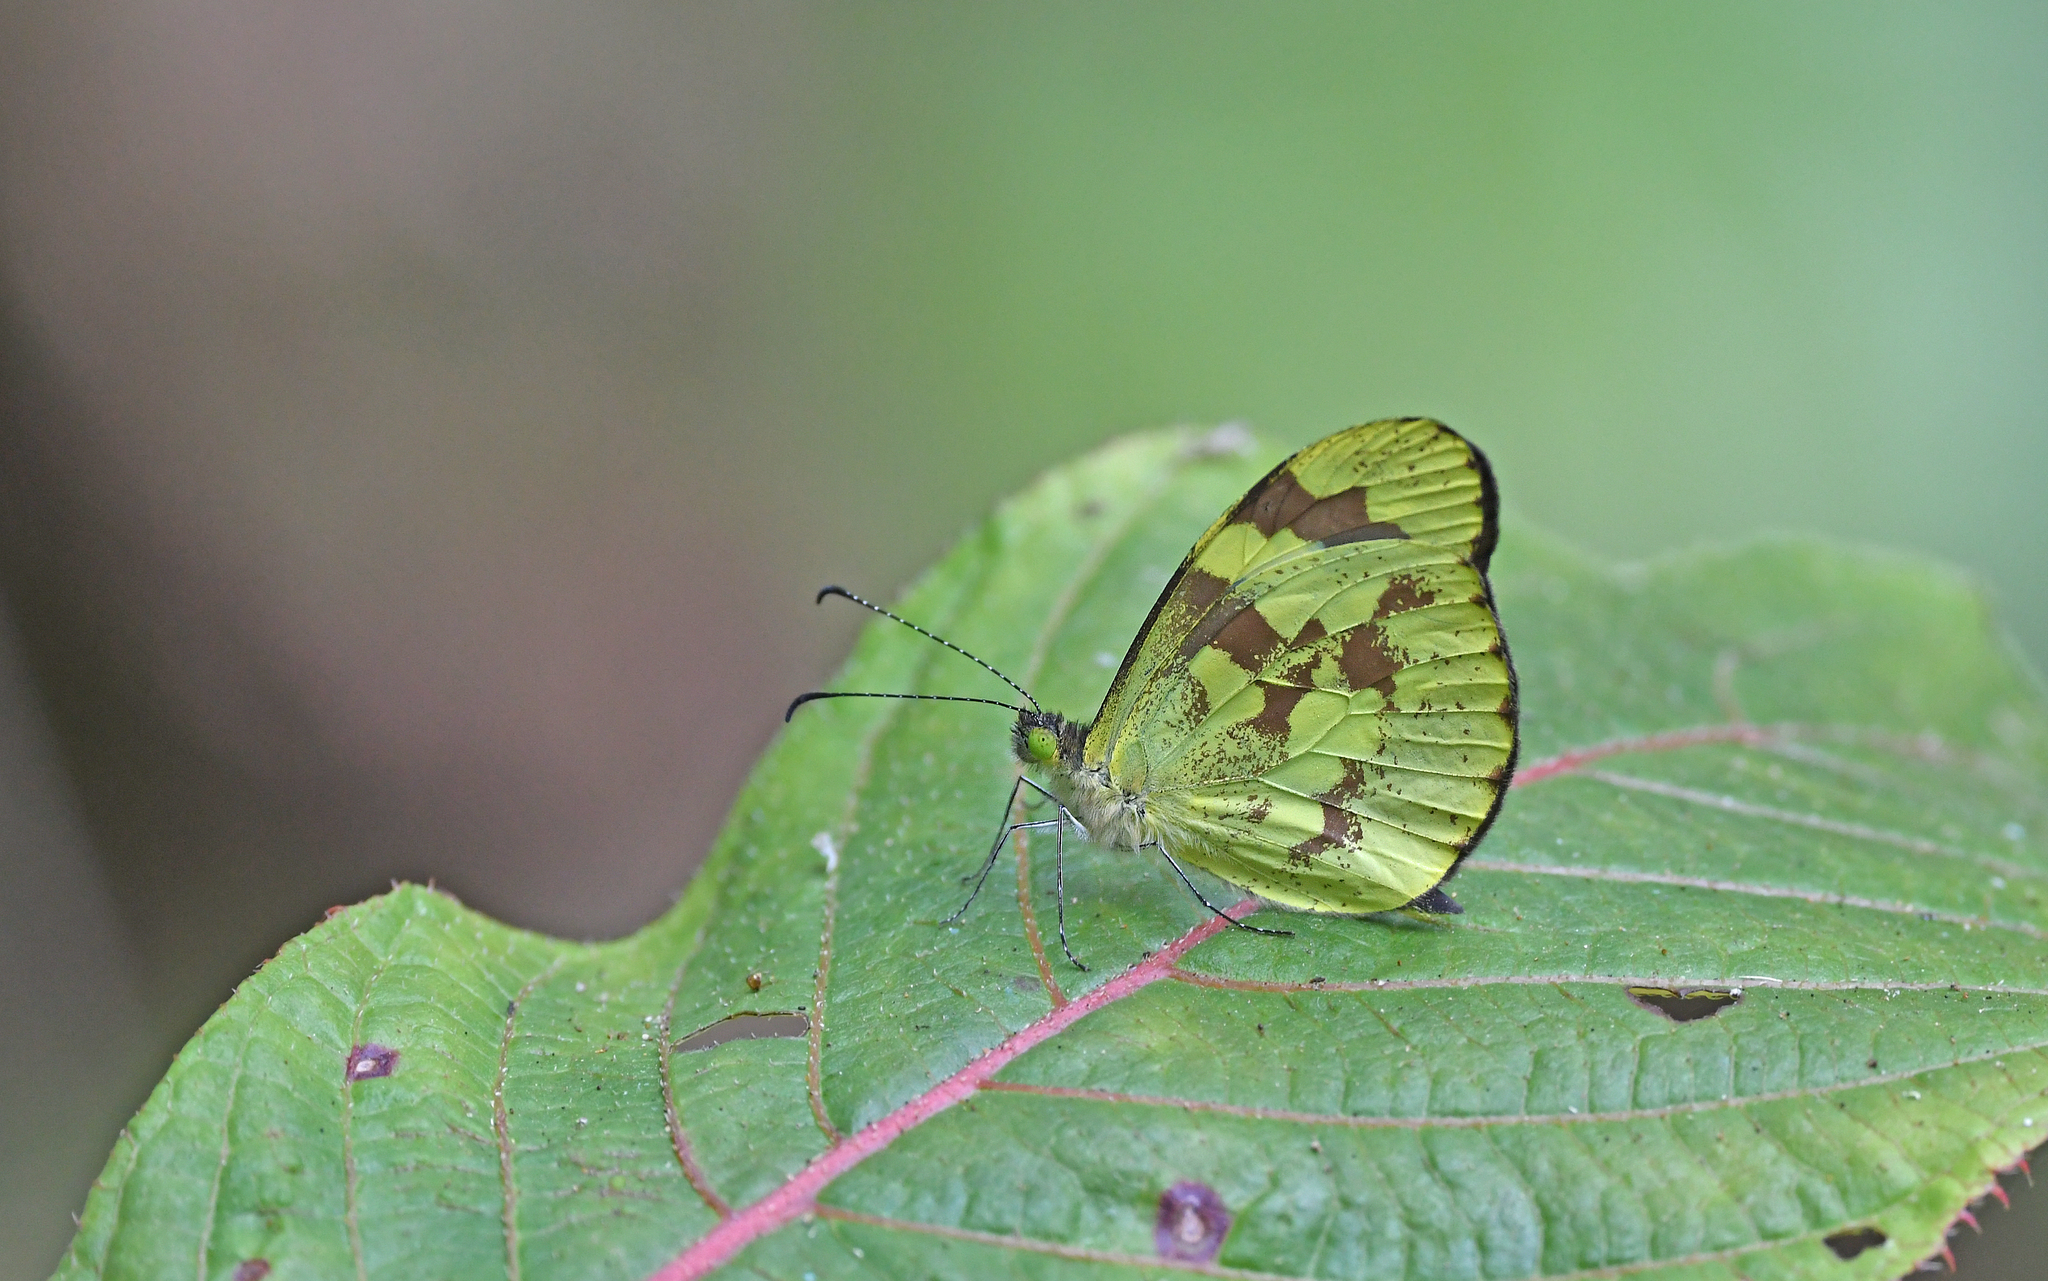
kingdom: Animalia
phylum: Arthropoda
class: Insecta
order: Lepidoptera
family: Pieridae
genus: Dismorphia
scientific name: Dismorphia medora
